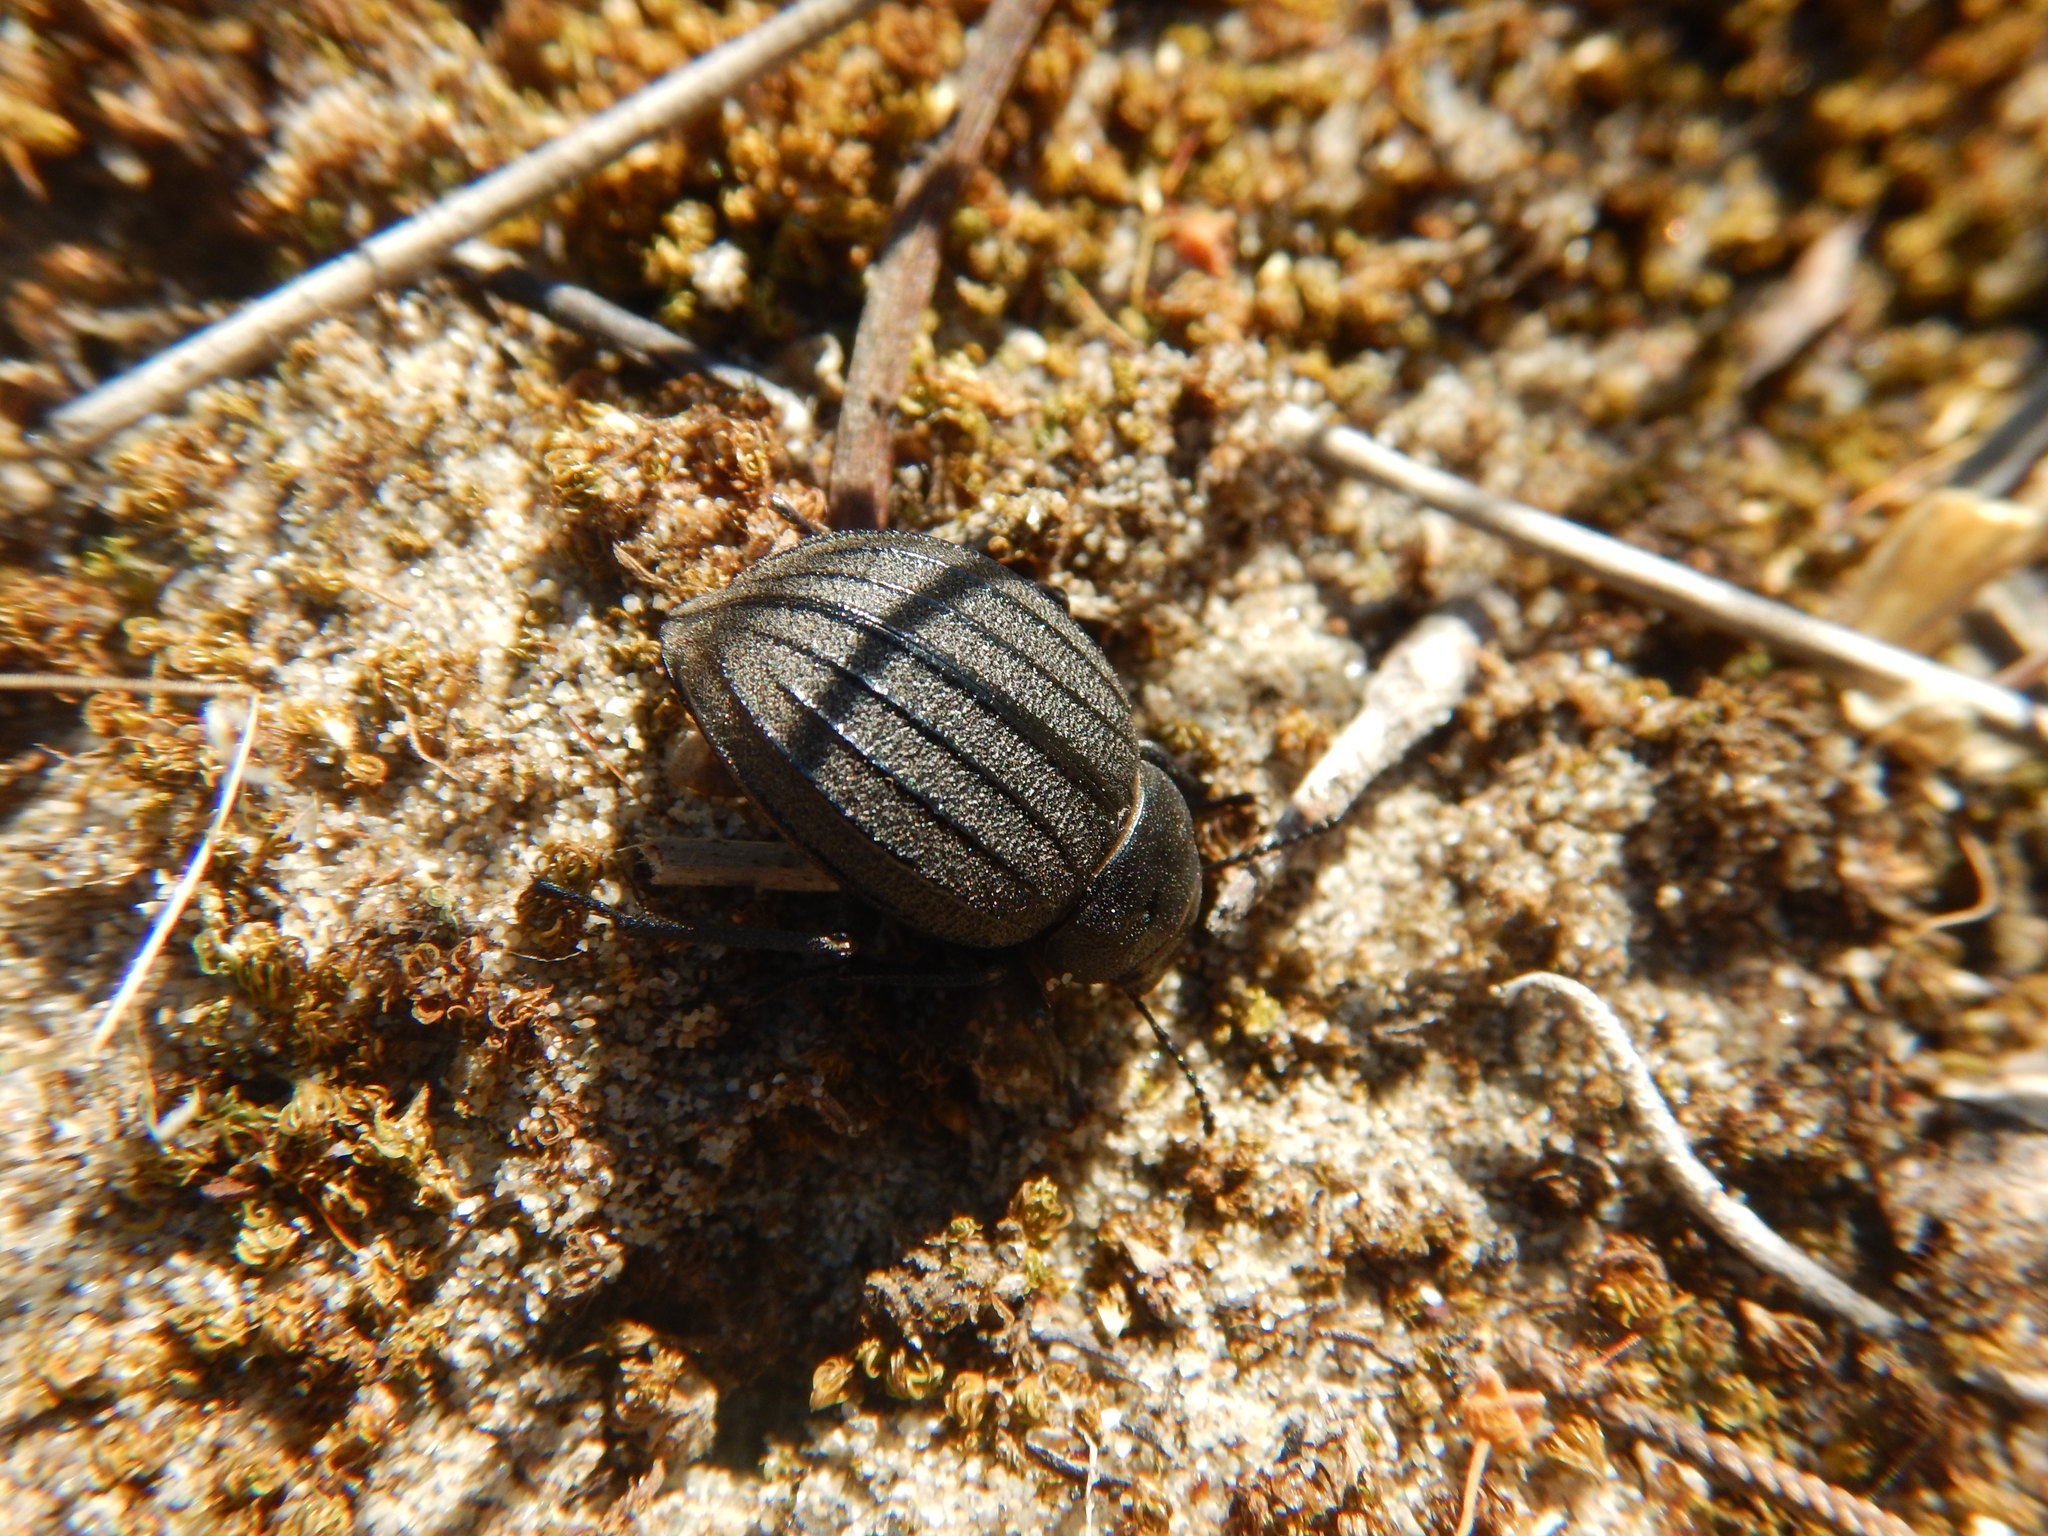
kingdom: Animalia
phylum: Arthropoda
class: Insecta
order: Coleoptera
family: Tenebrionidae
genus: Pimelia
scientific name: Pimelia muricata
